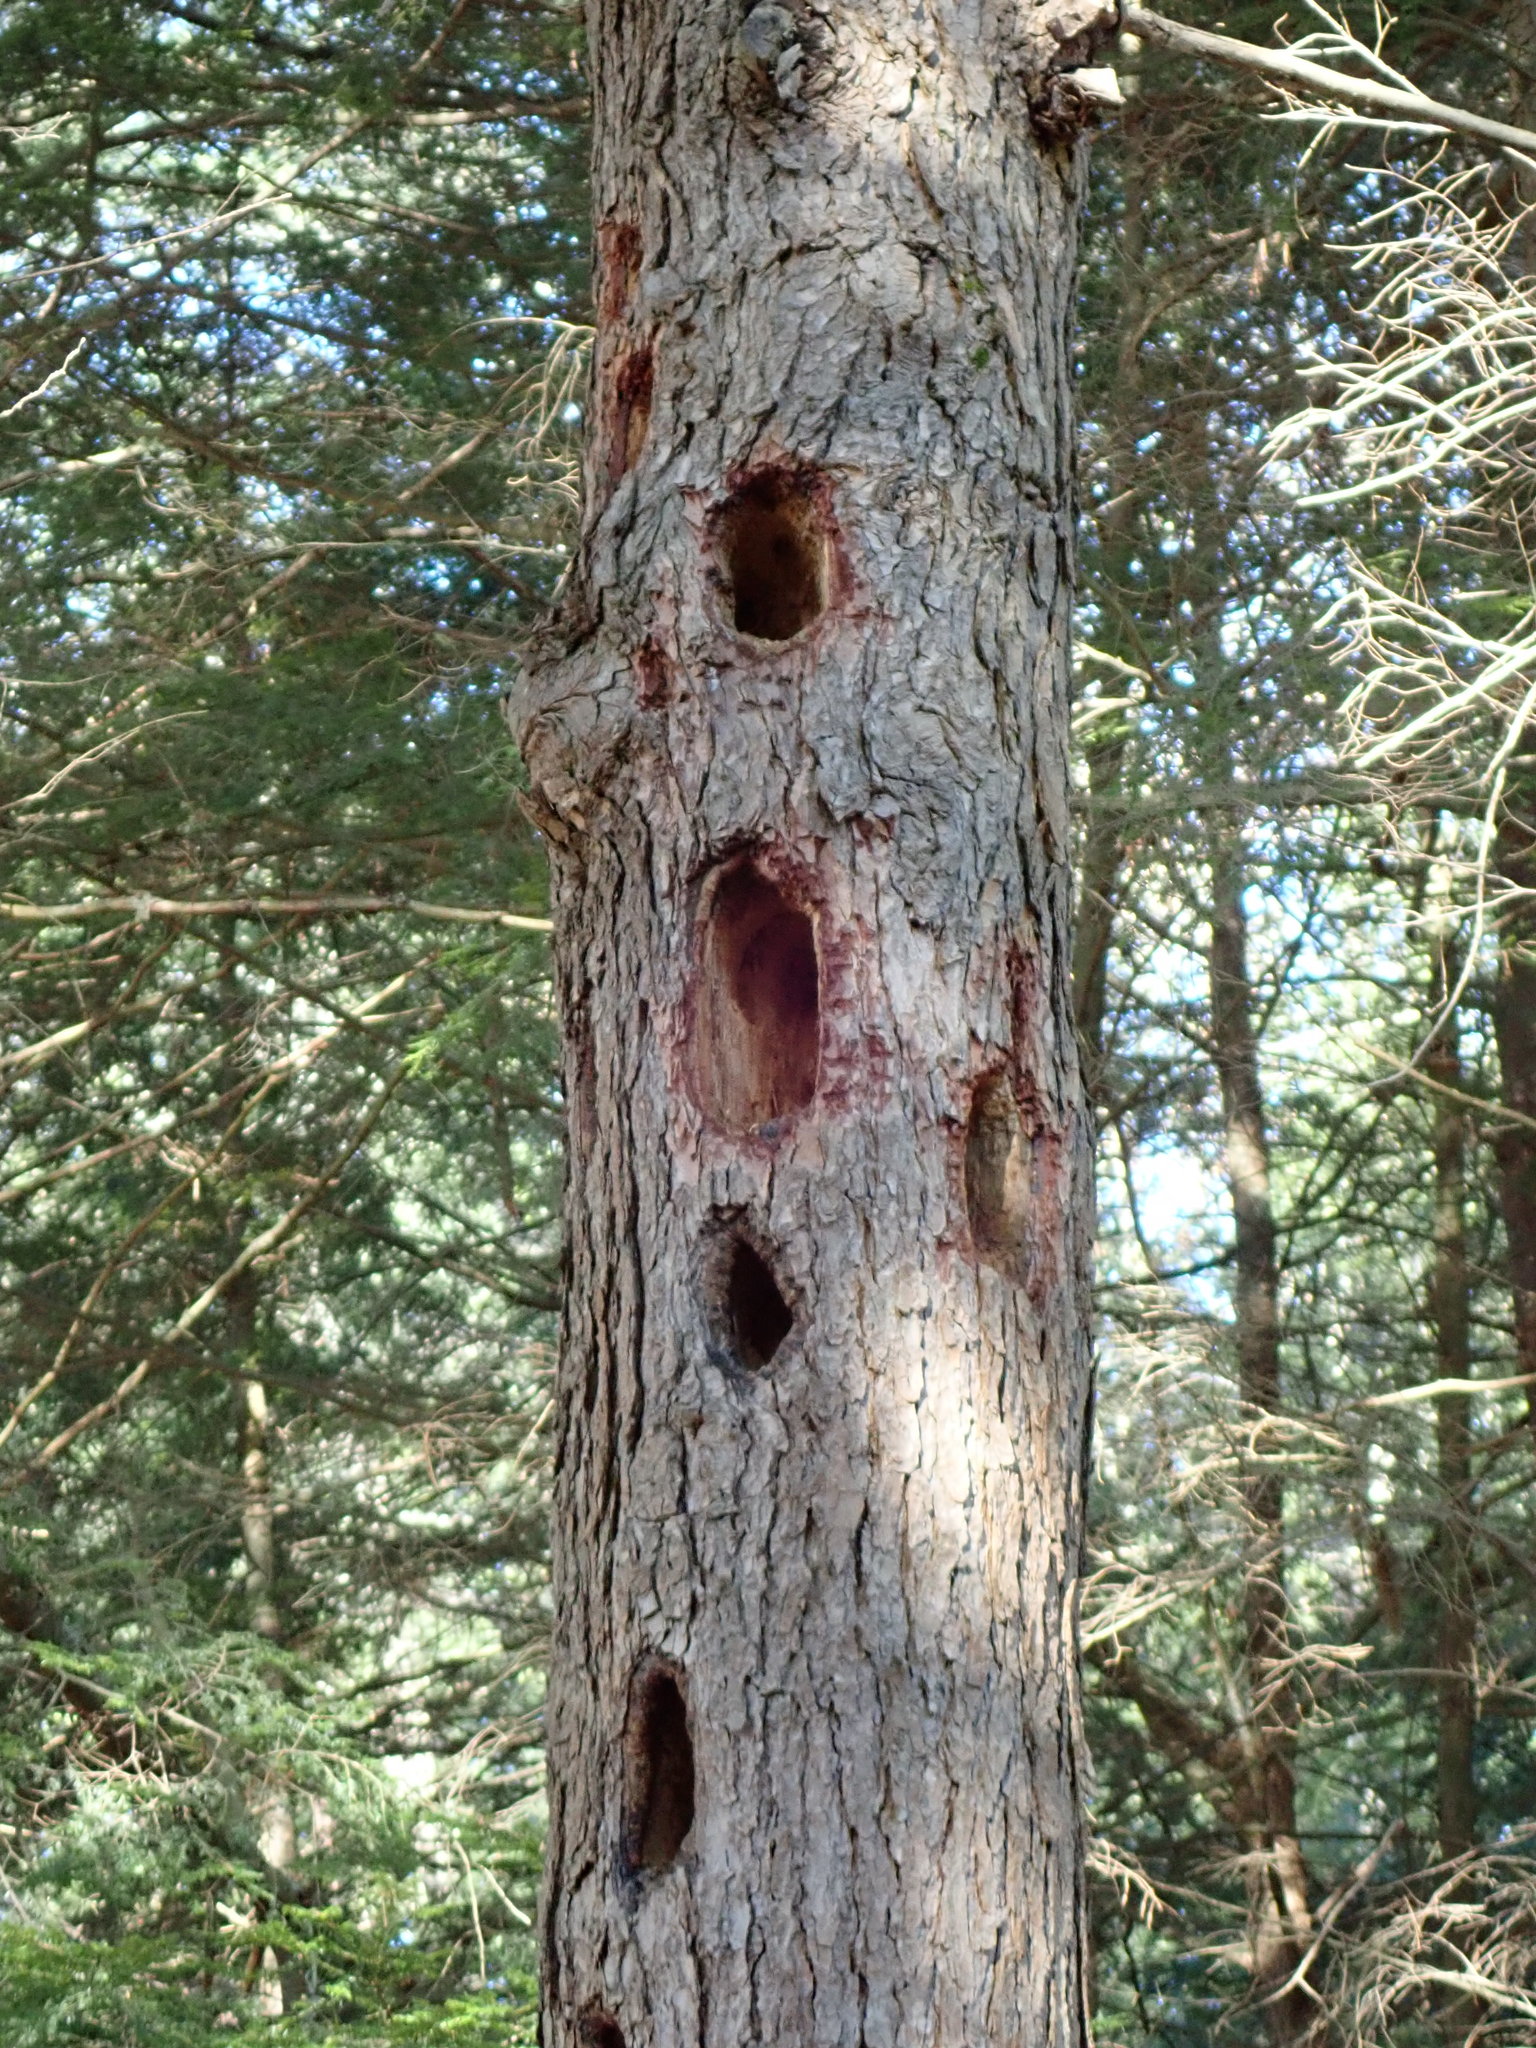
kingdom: Animalia
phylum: Chordata
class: Aves
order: Piciformes
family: Picidae
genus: Dryocopus
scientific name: Dryocopus pileatus
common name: Pileated woodpecker
